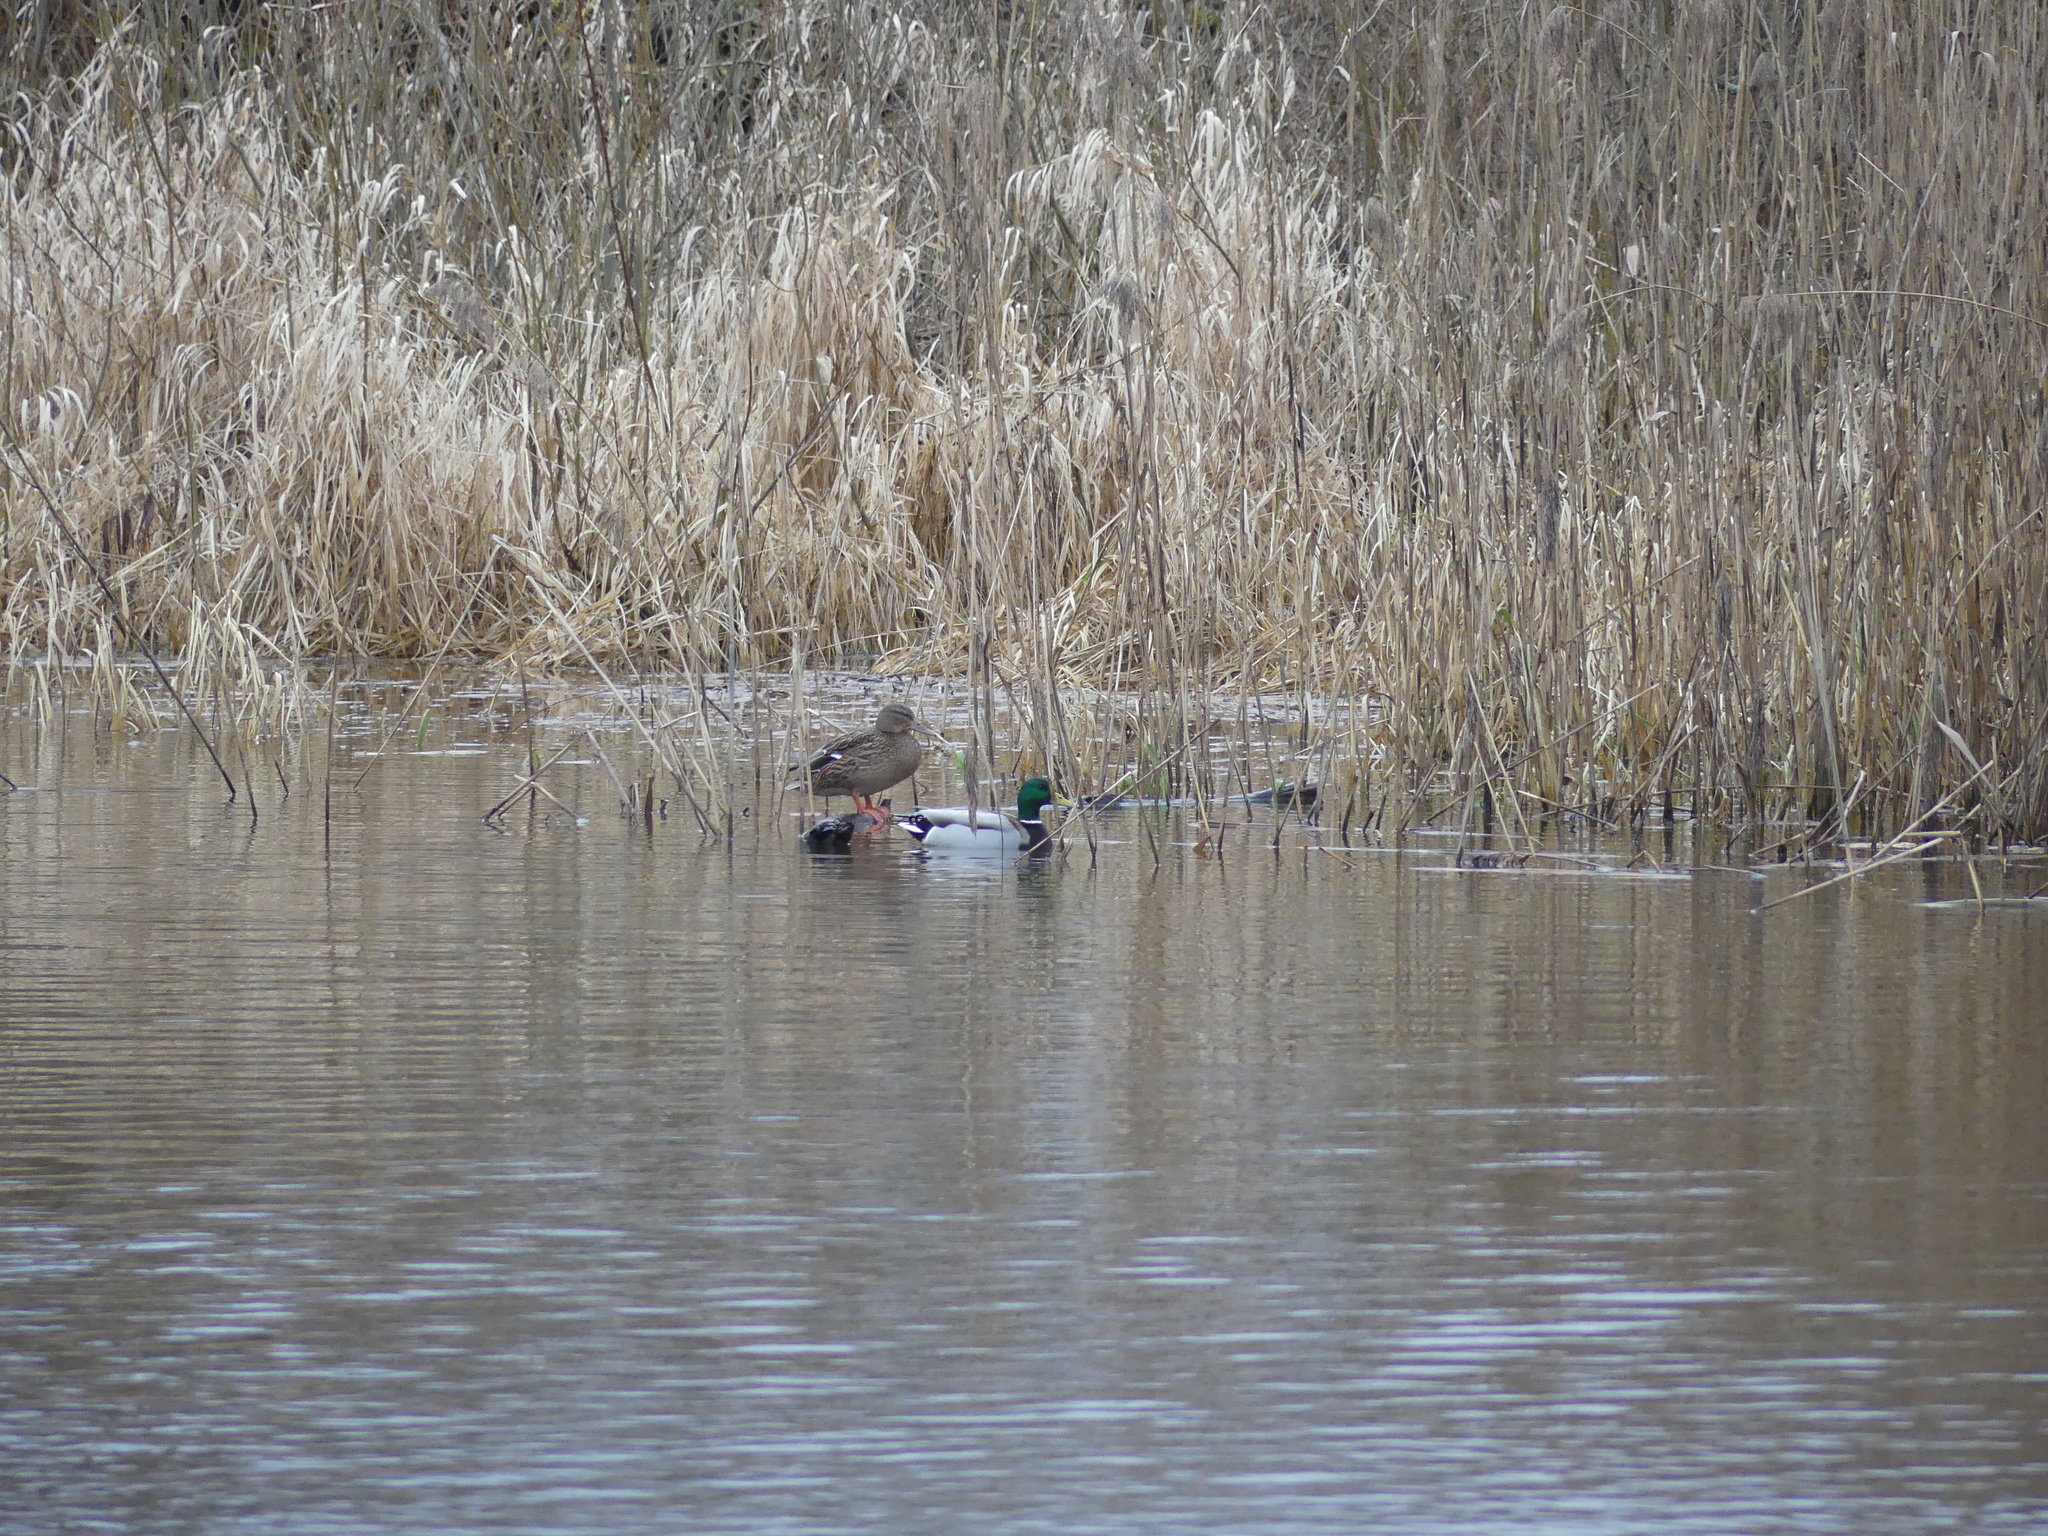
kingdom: Animalia
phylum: Chordata
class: Aves
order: Anseriformes
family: Anatidae
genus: Anas
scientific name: Anas platyrhynchos
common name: Mallard
